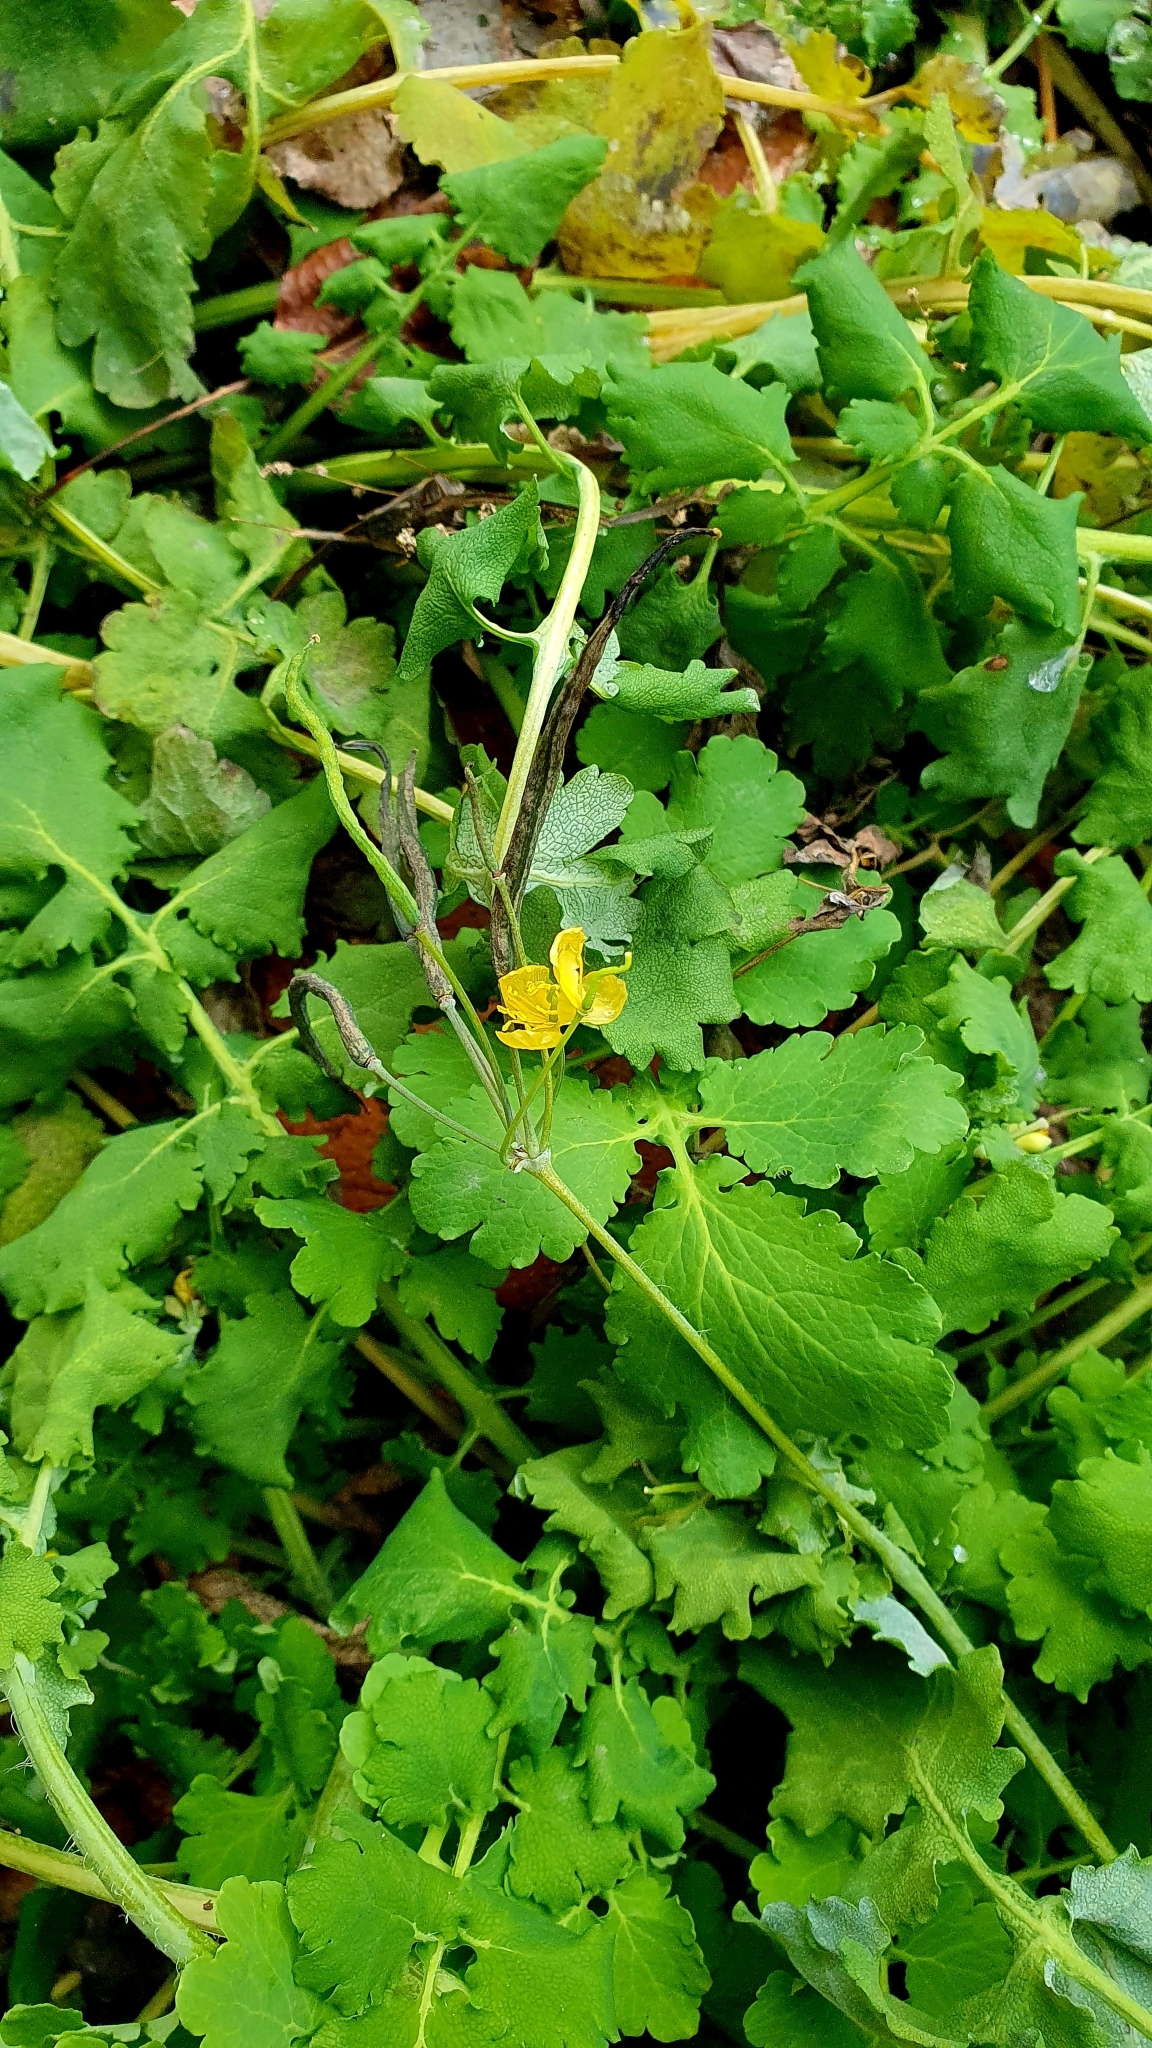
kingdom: Plantae
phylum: Tracheophyta
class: Magnoliopsida
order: Ranunculales
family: Papaveraceae
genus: Chelidonium
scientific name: Chelidonium majus
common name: Greater celandine
